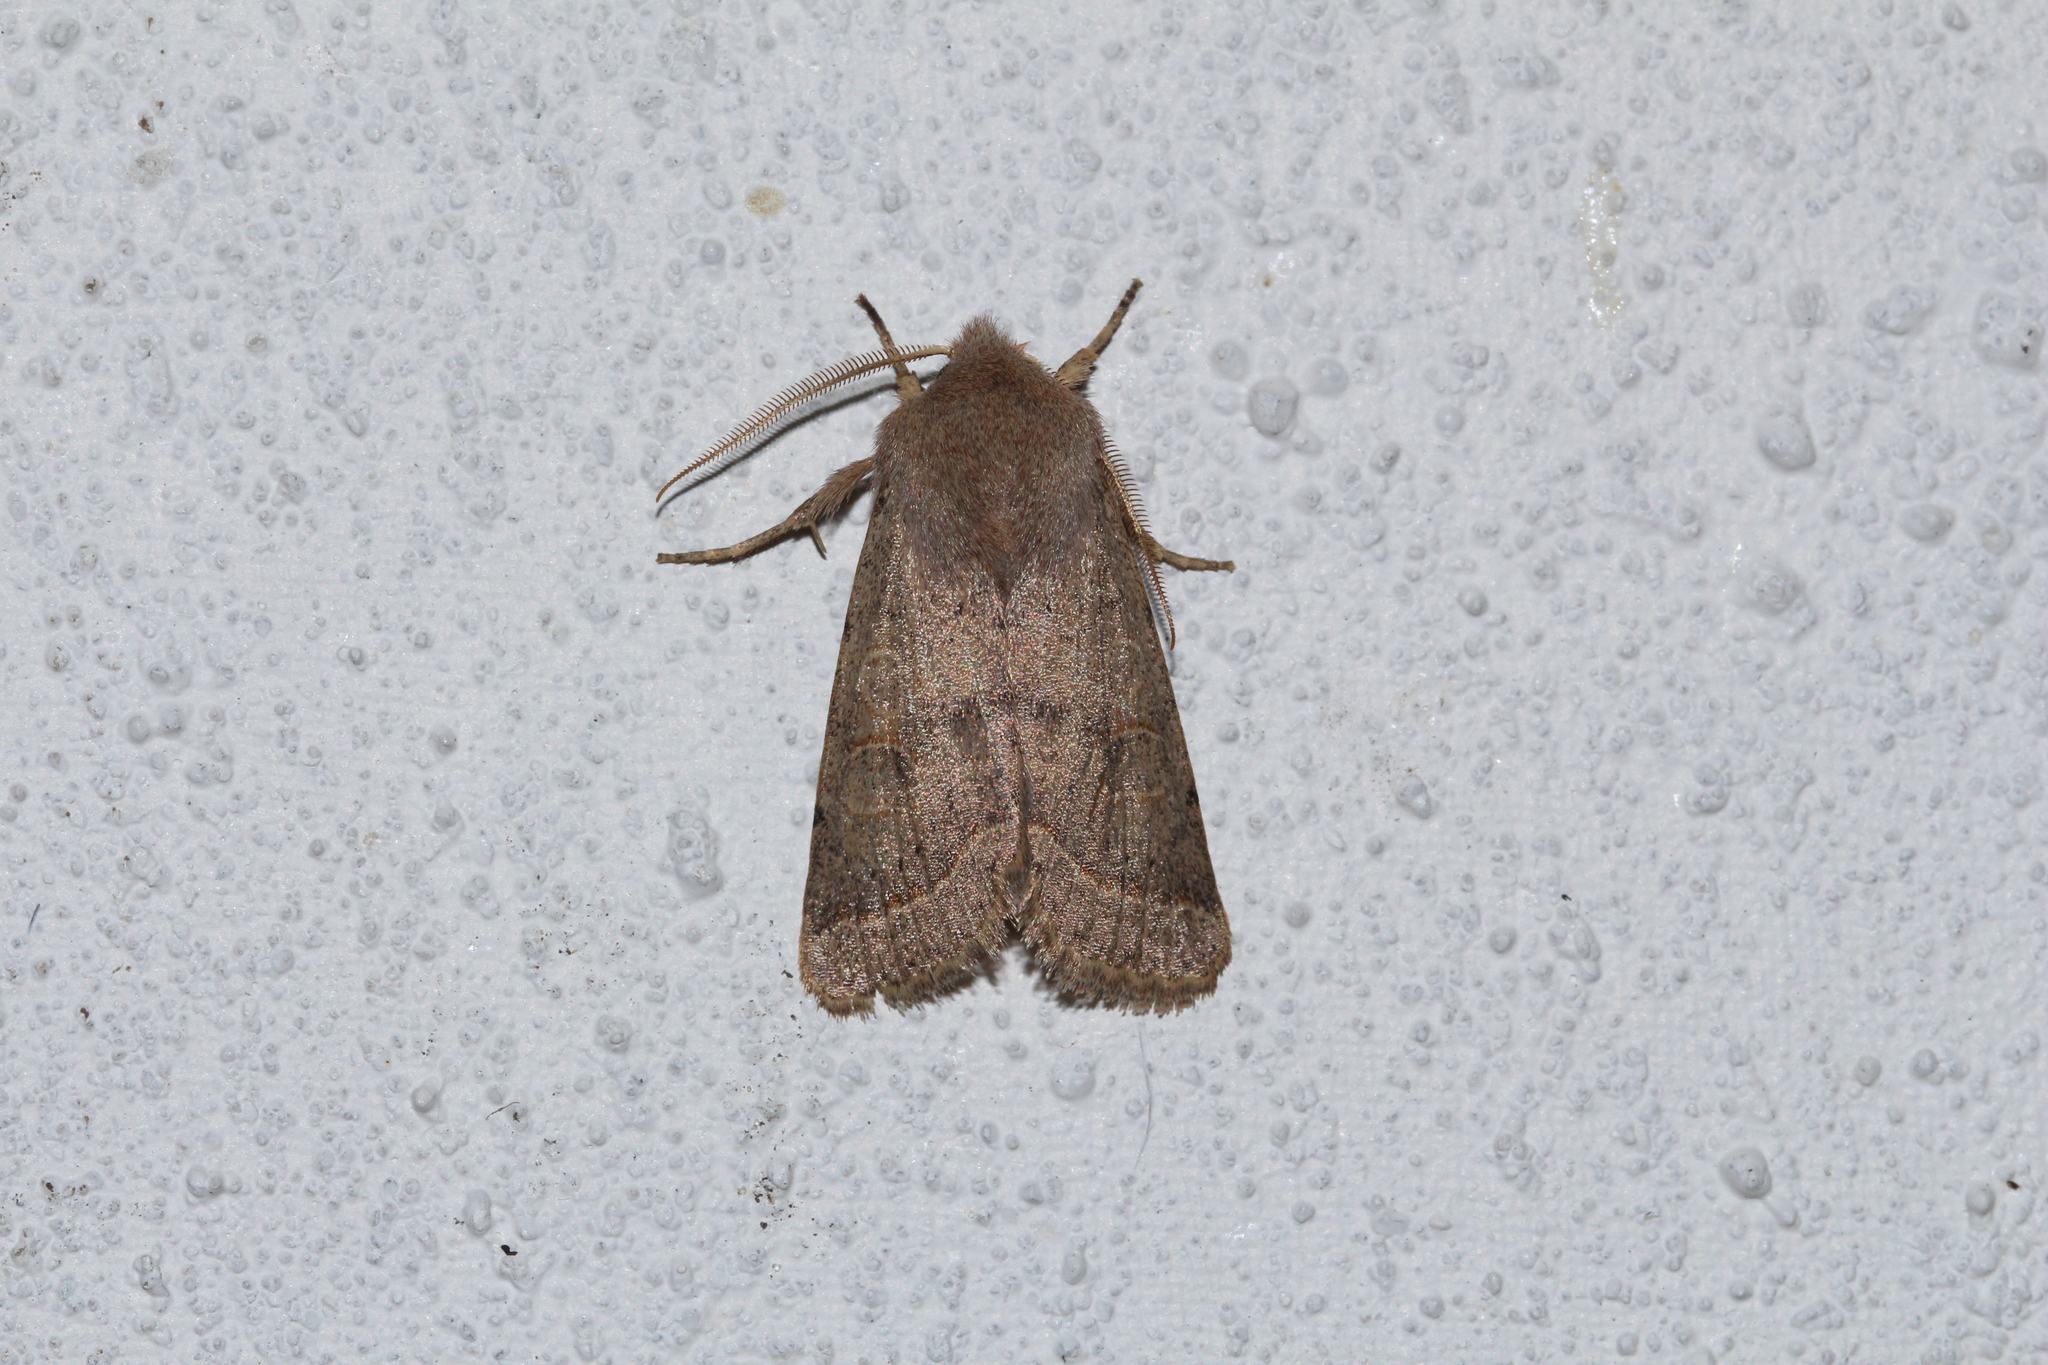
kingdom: Animalia
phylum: Arthropoda
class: Insecta
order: Lepidoptera
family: Noctuidae
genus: Orthosia
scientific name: Orthosia cerasi
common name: Common quaker
